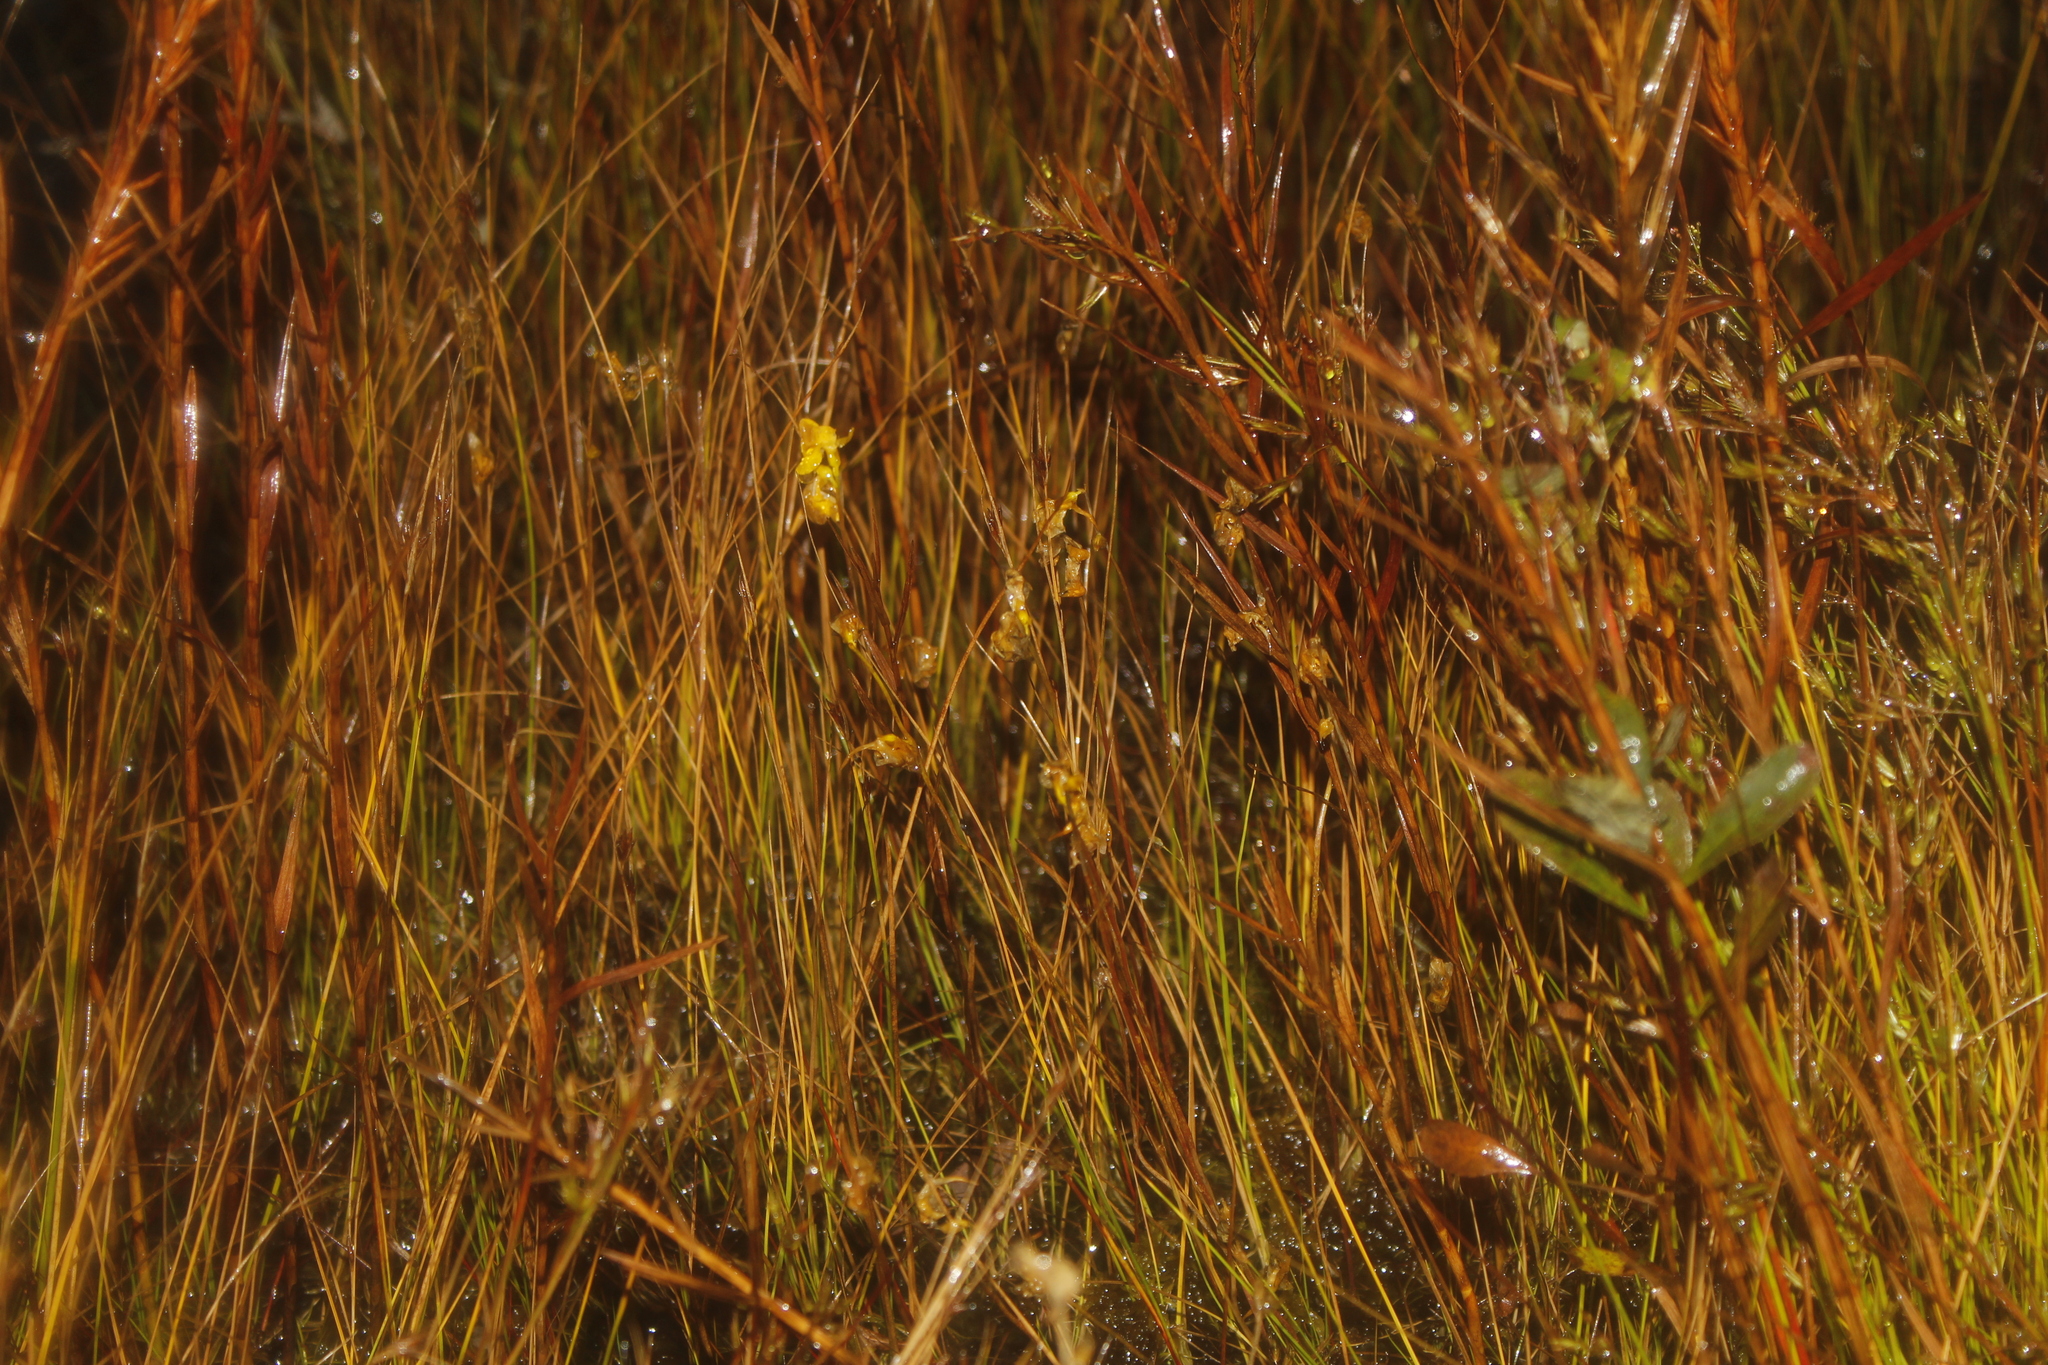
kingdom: Plantae
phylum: Tracheophyta
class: Magnoliopsida
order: Lamiales
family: Lentibulariaceae
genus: Utricularia
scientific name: Utricularia cornuta
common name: Horned bladderwort
